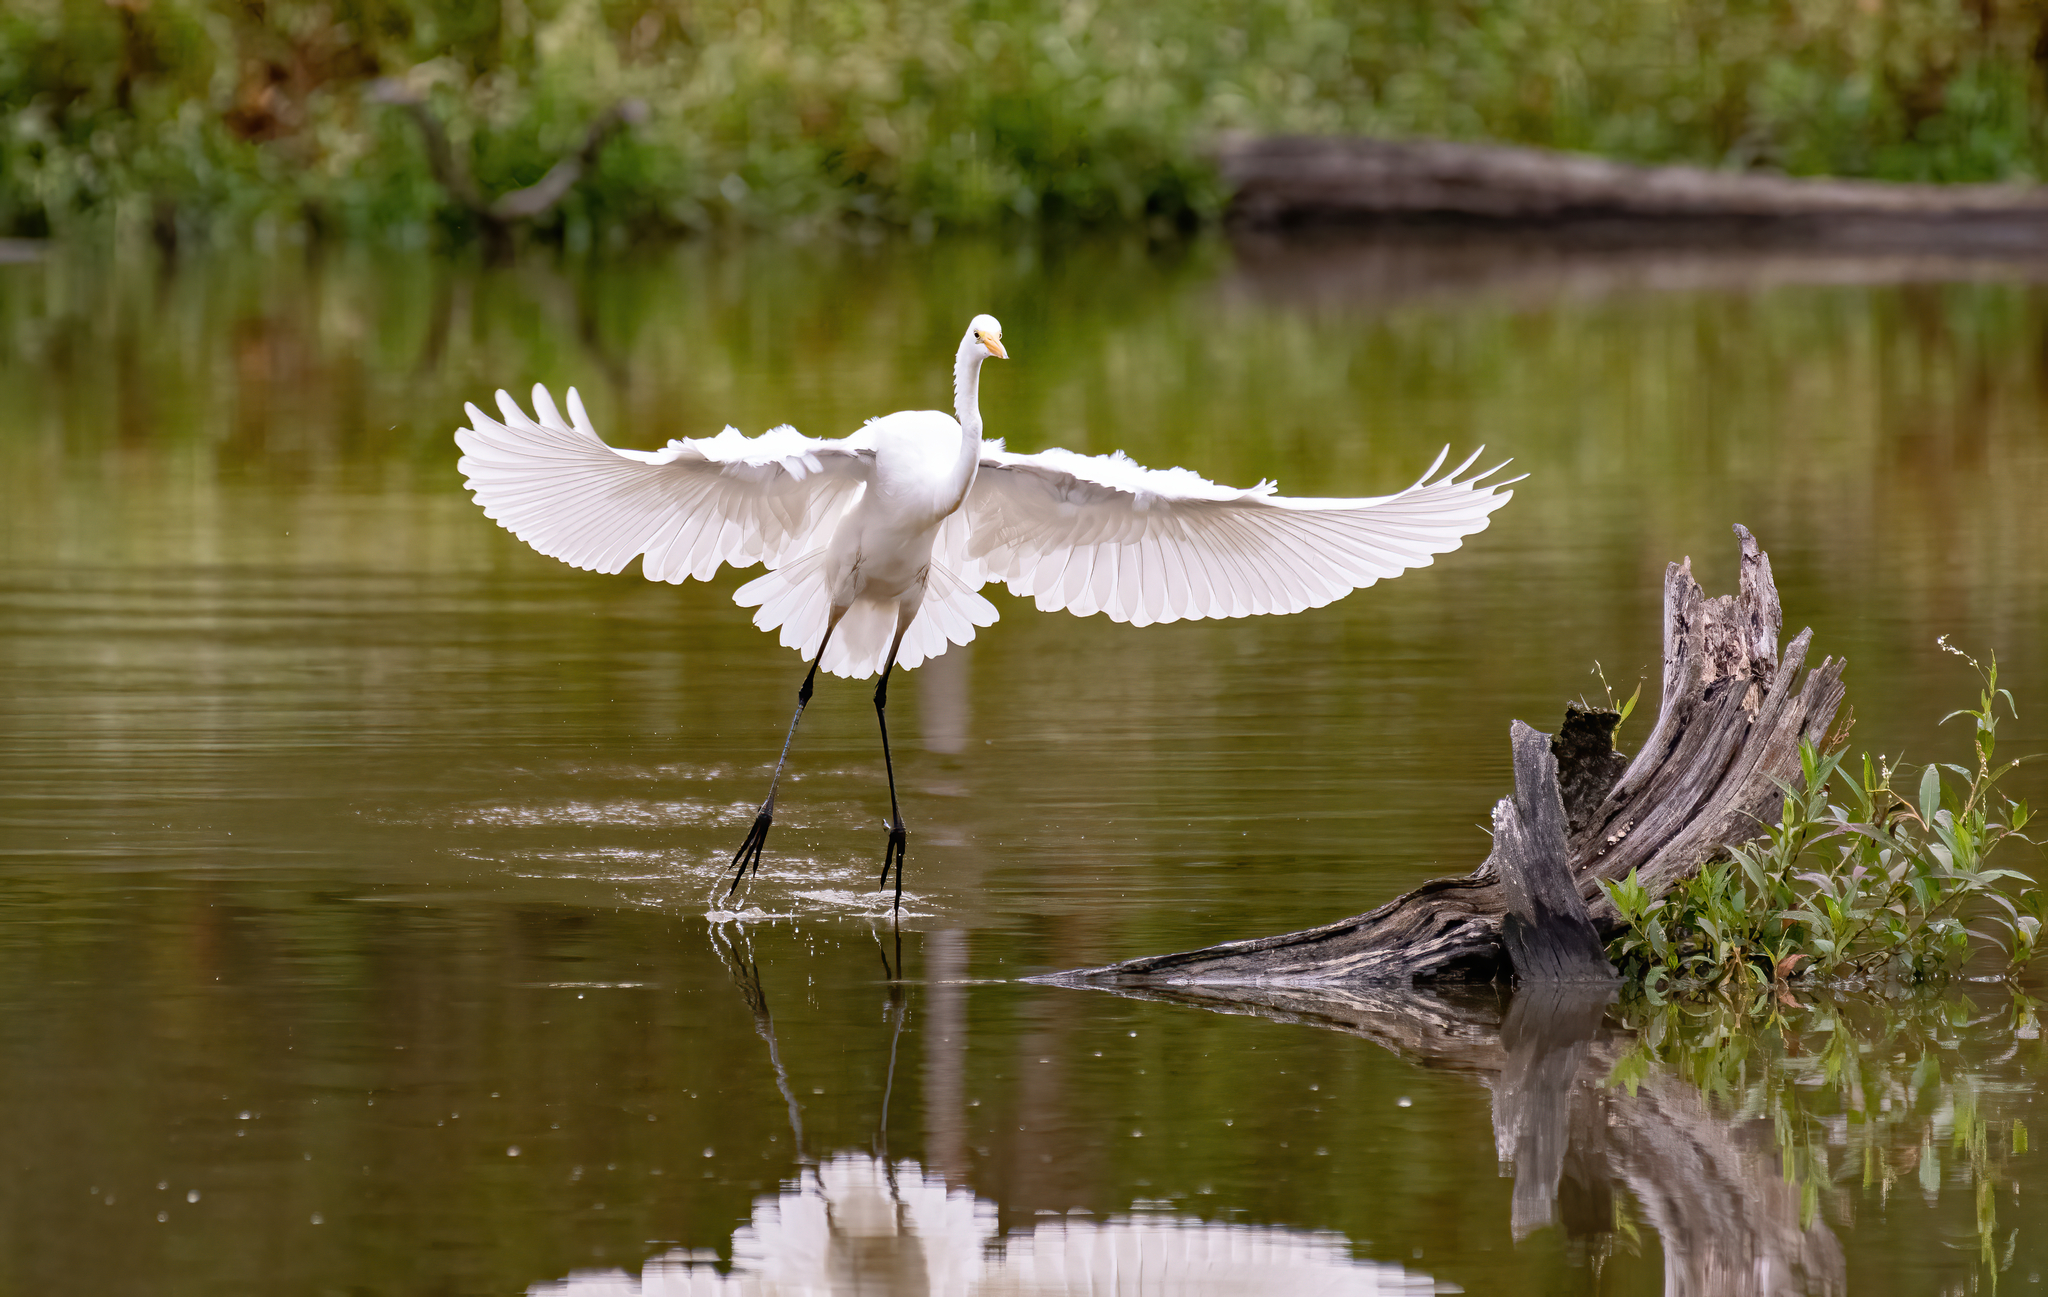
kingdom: Animalia
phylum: Chordata
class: Aves
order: Pelecaniformes
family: Ardeidae
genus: Ardea
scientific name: Ardea alba
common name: Great egret
